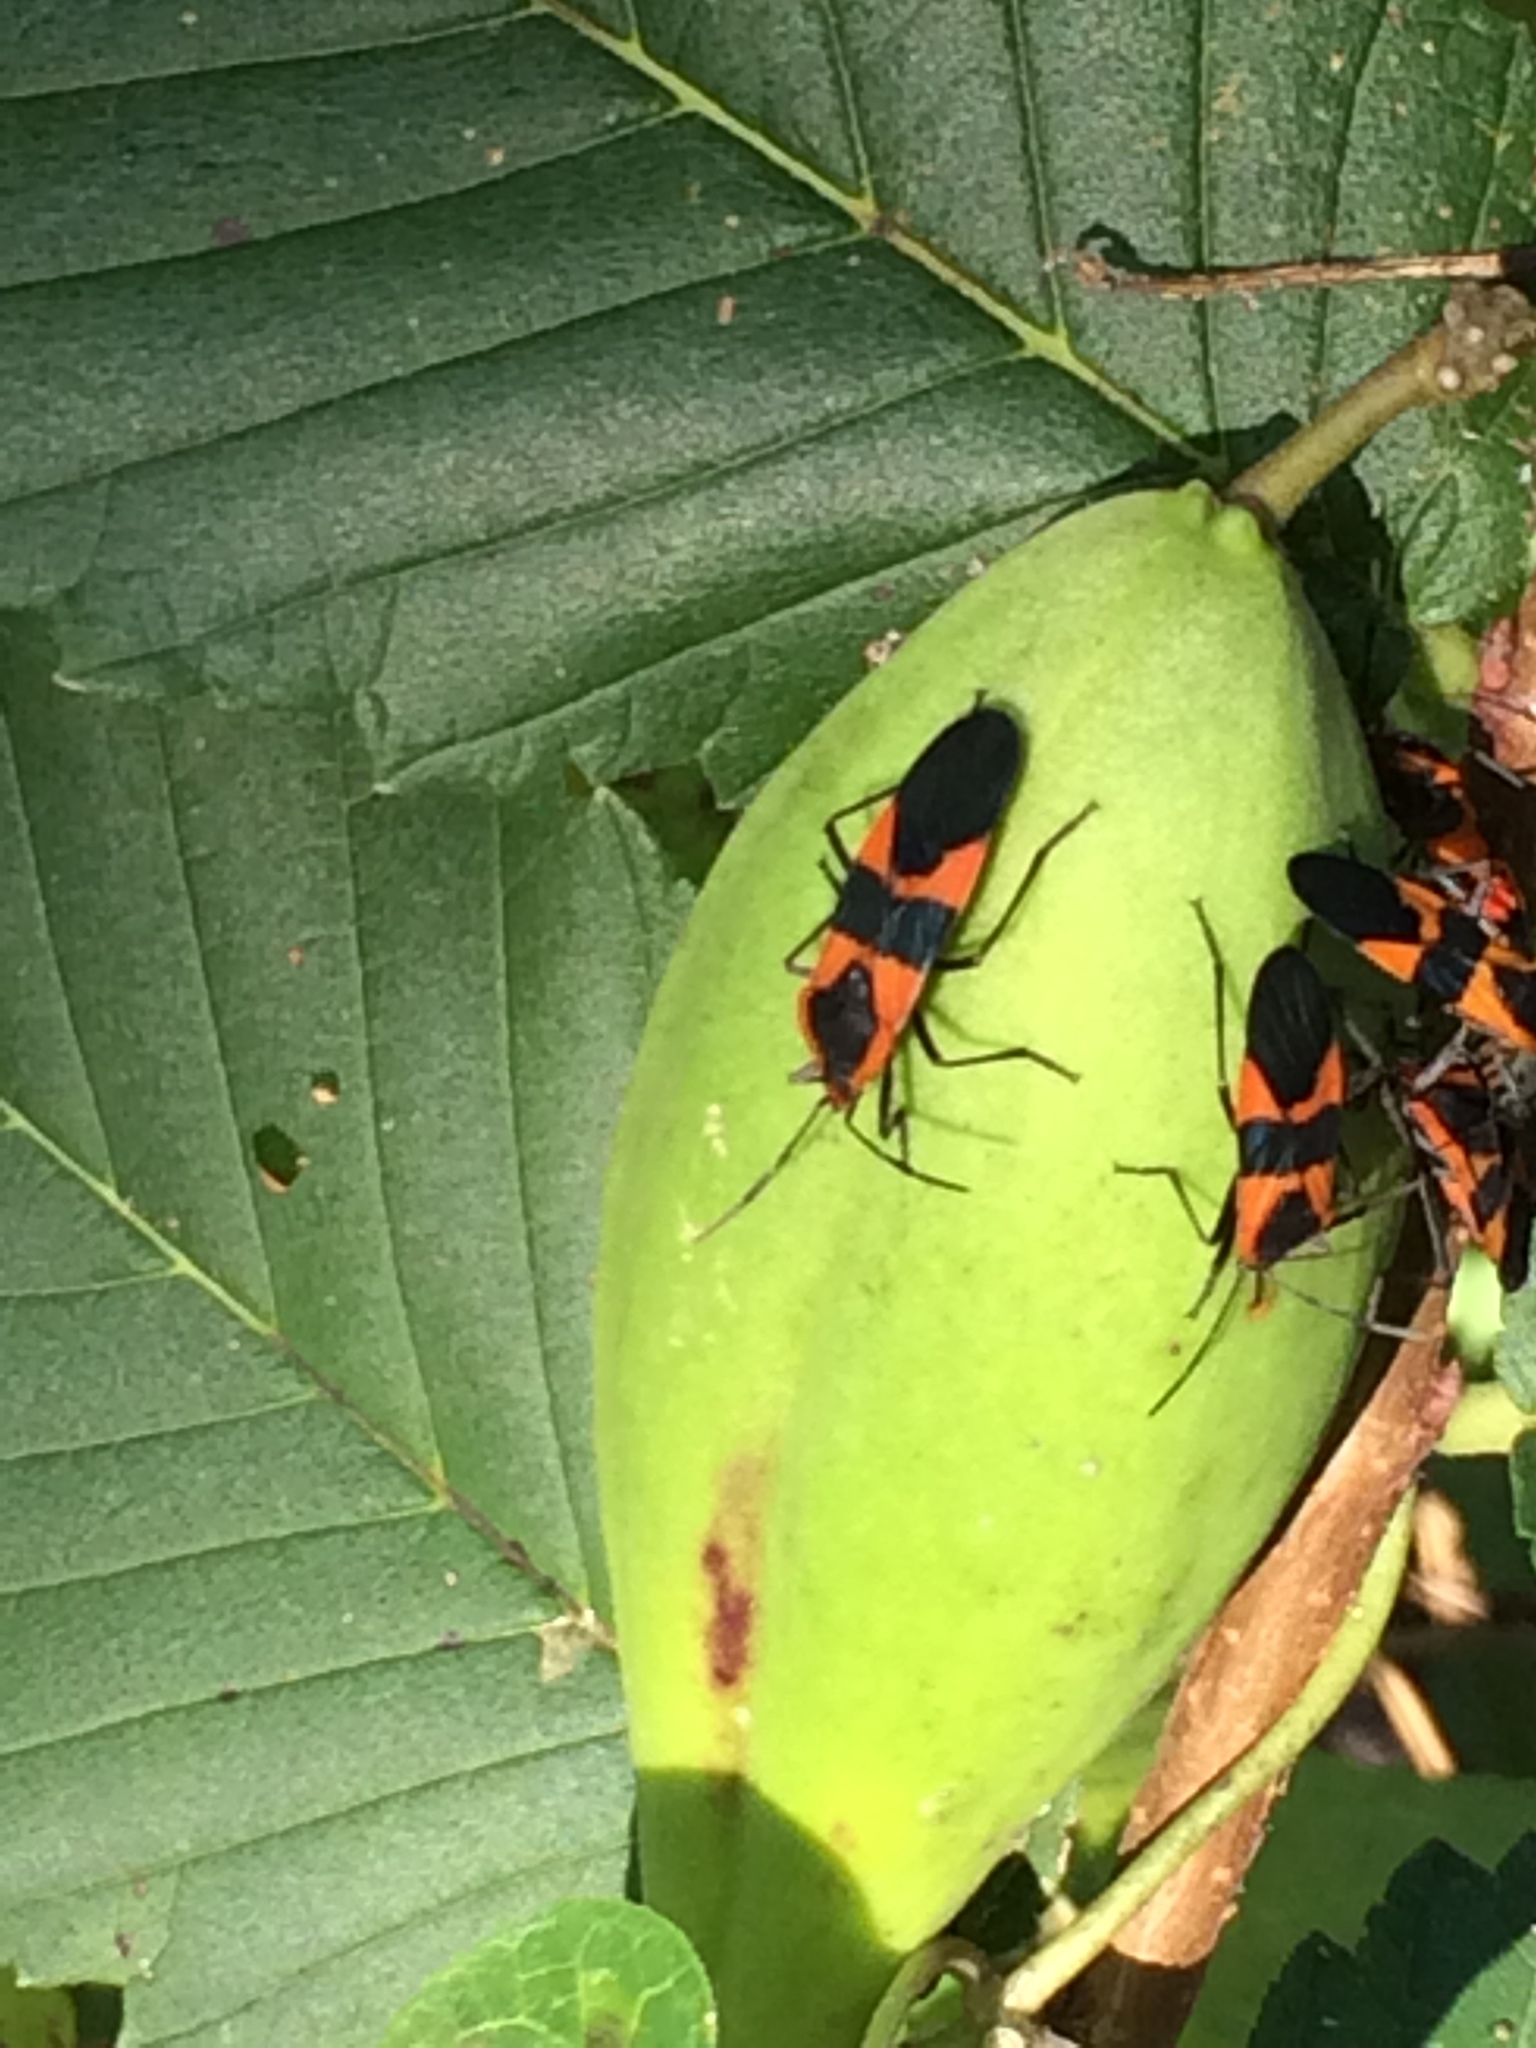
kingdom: Animalia
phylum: Arthropoda
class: Insecta
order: Hemiptera
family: Lygaeidae
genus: Oncopeltus
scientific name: Oncopeltus fasciatus
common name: Large milkweed bug
